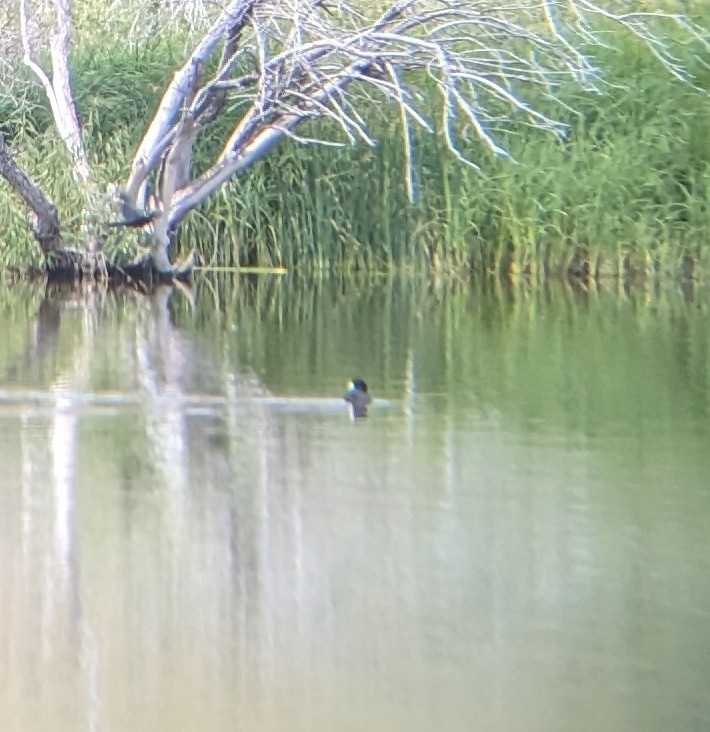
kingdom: Animalia
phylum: Chordata
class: Aves
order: Gruiformes
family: Rallidae
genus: Fulica
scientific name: Fulica americana
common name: American coot
